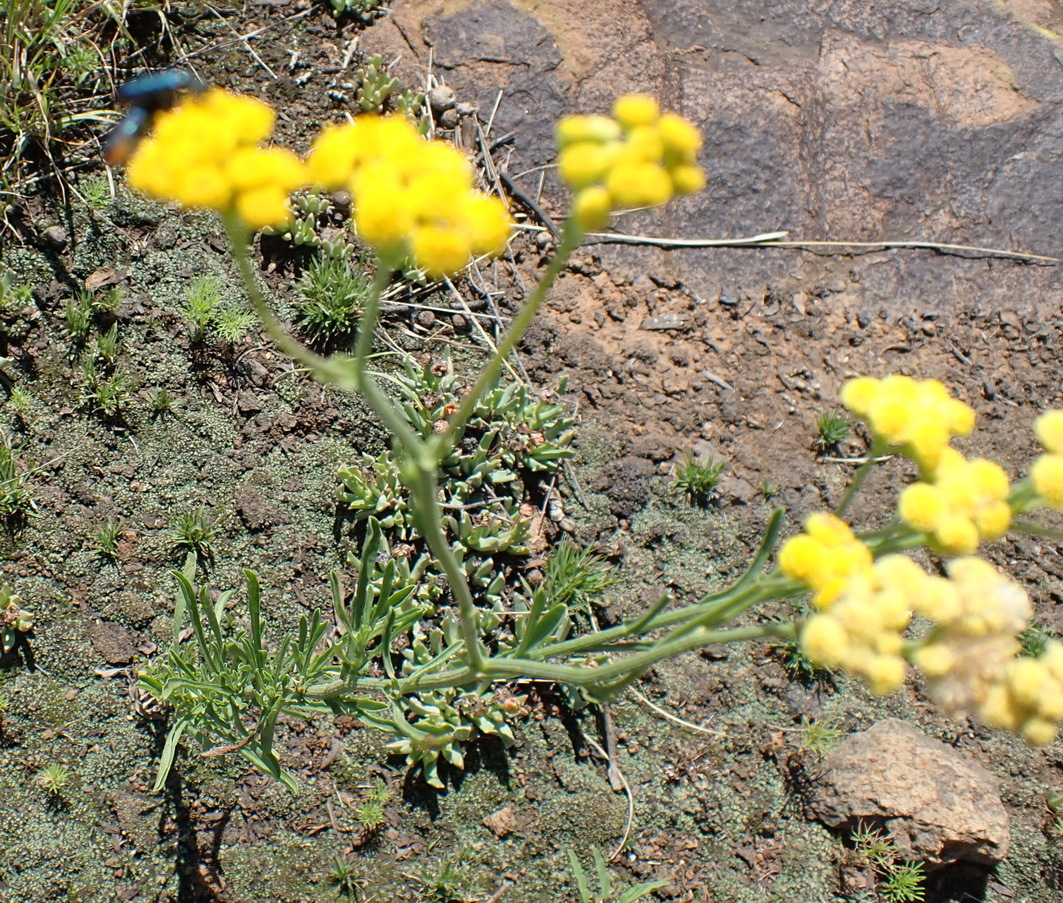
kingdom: Plantae
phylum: Tracheophyta
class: Magnoliopsida
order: Asterales
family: Asteraceae
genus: Nidorella
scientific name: Nidorella resedifolia
